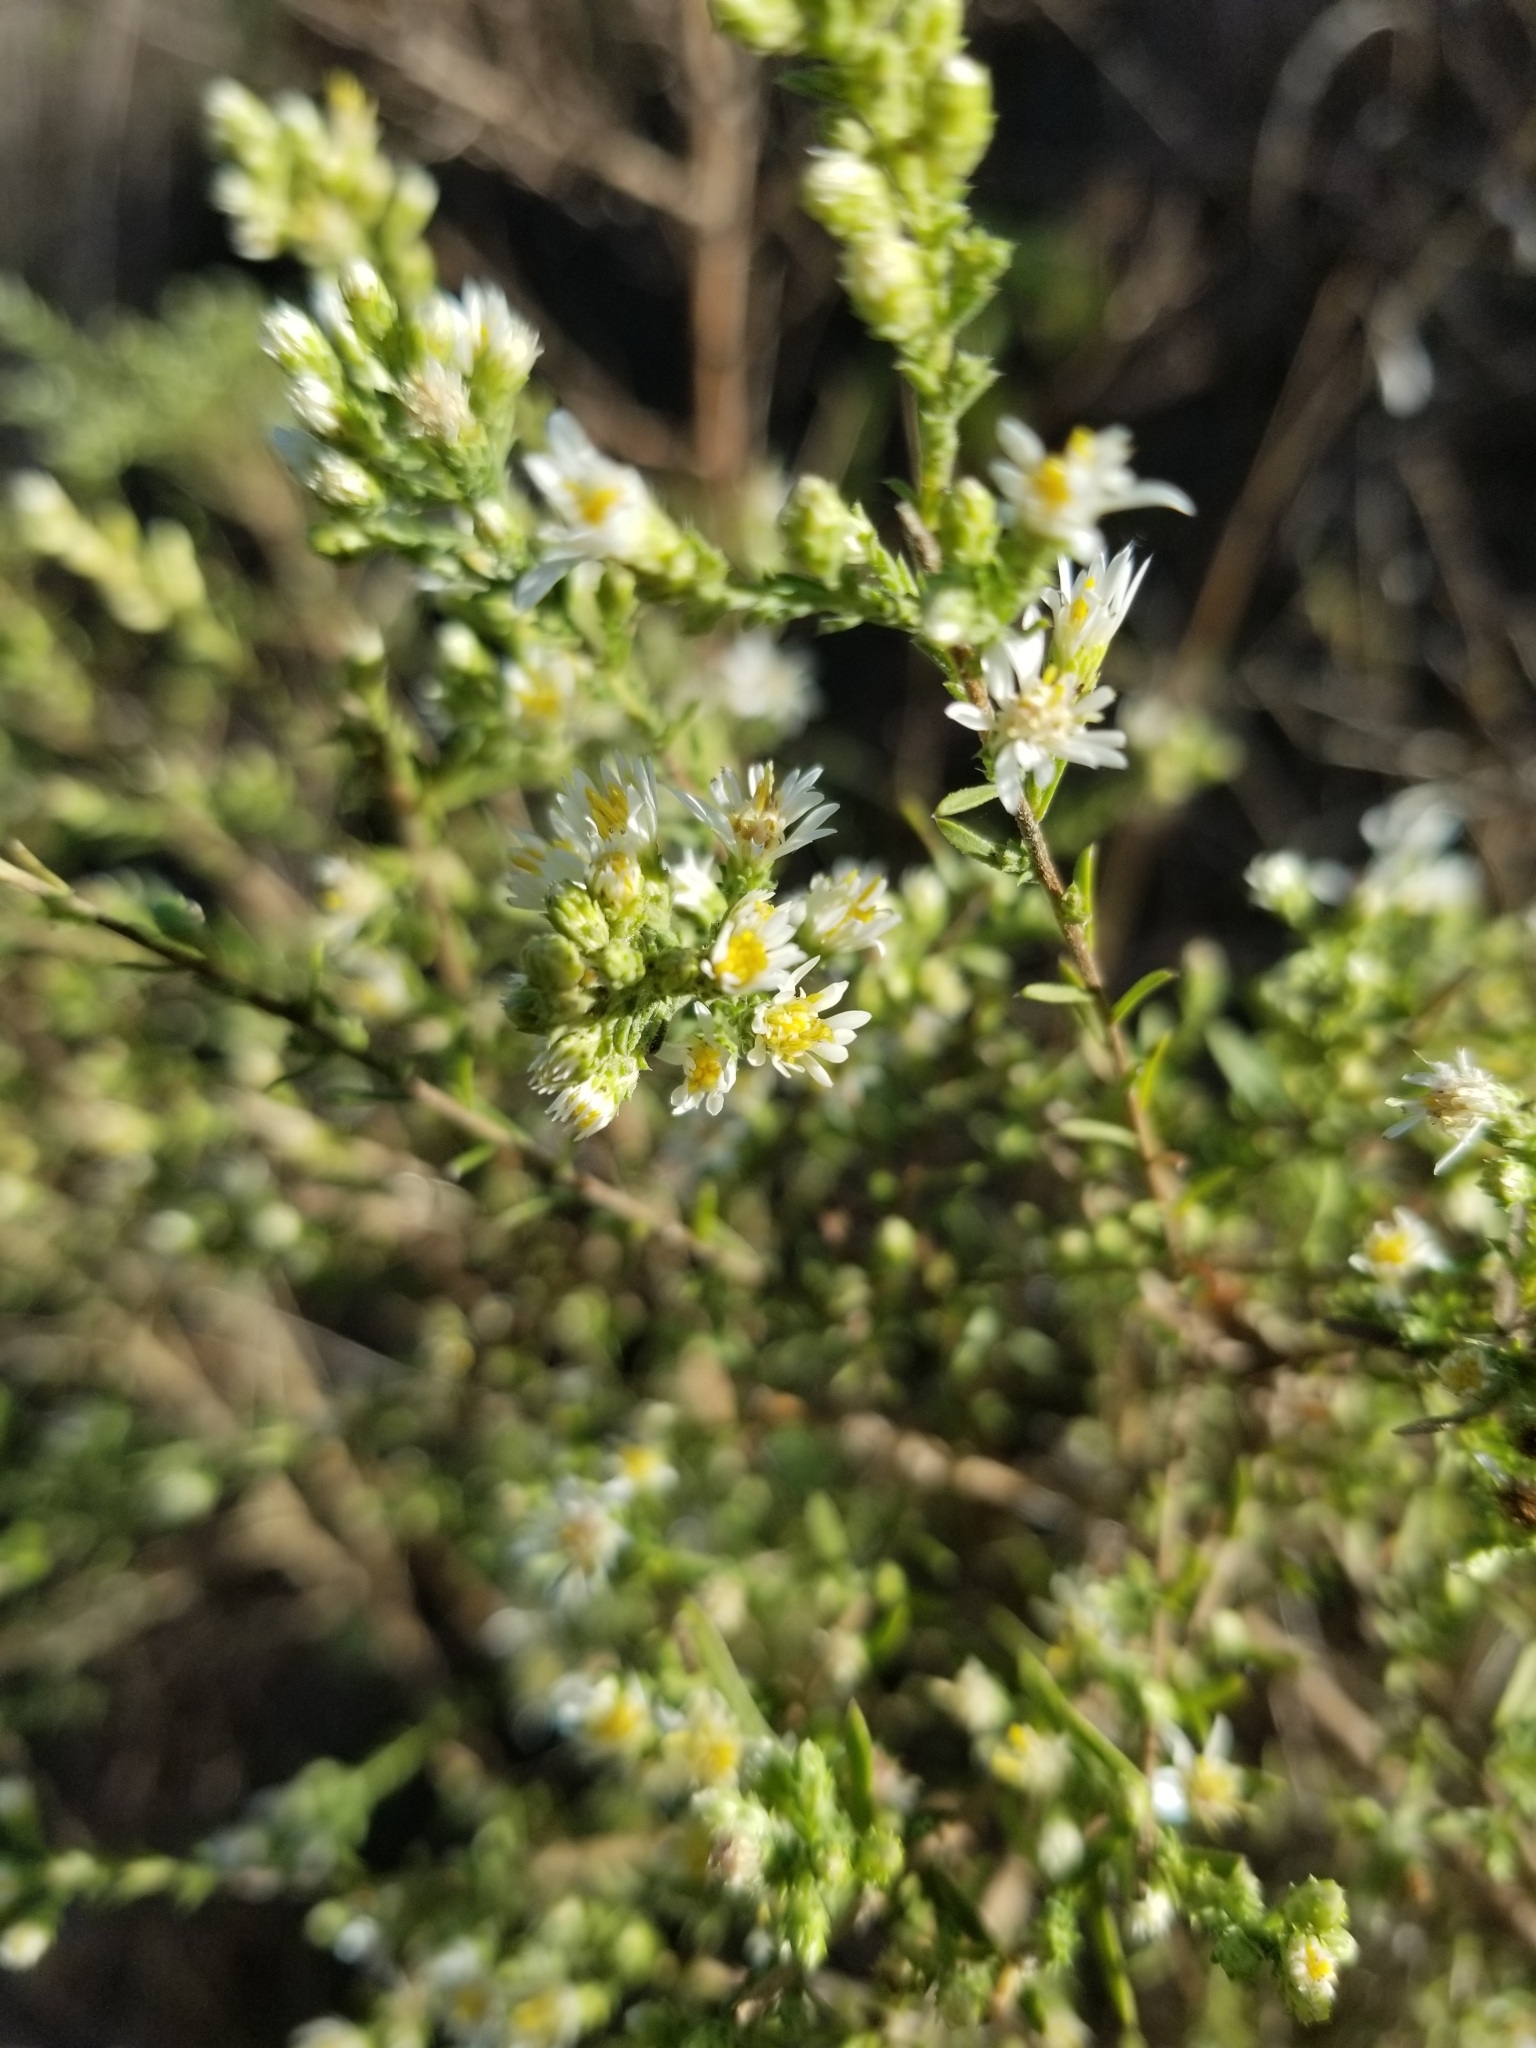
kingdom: Plantae
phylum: Tracheophyta
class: Magnoliopsida
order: Asterales
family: Asteraceae
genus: Symphyotrichum
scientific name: Symphyotrichum ericoides
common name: Heath aster
